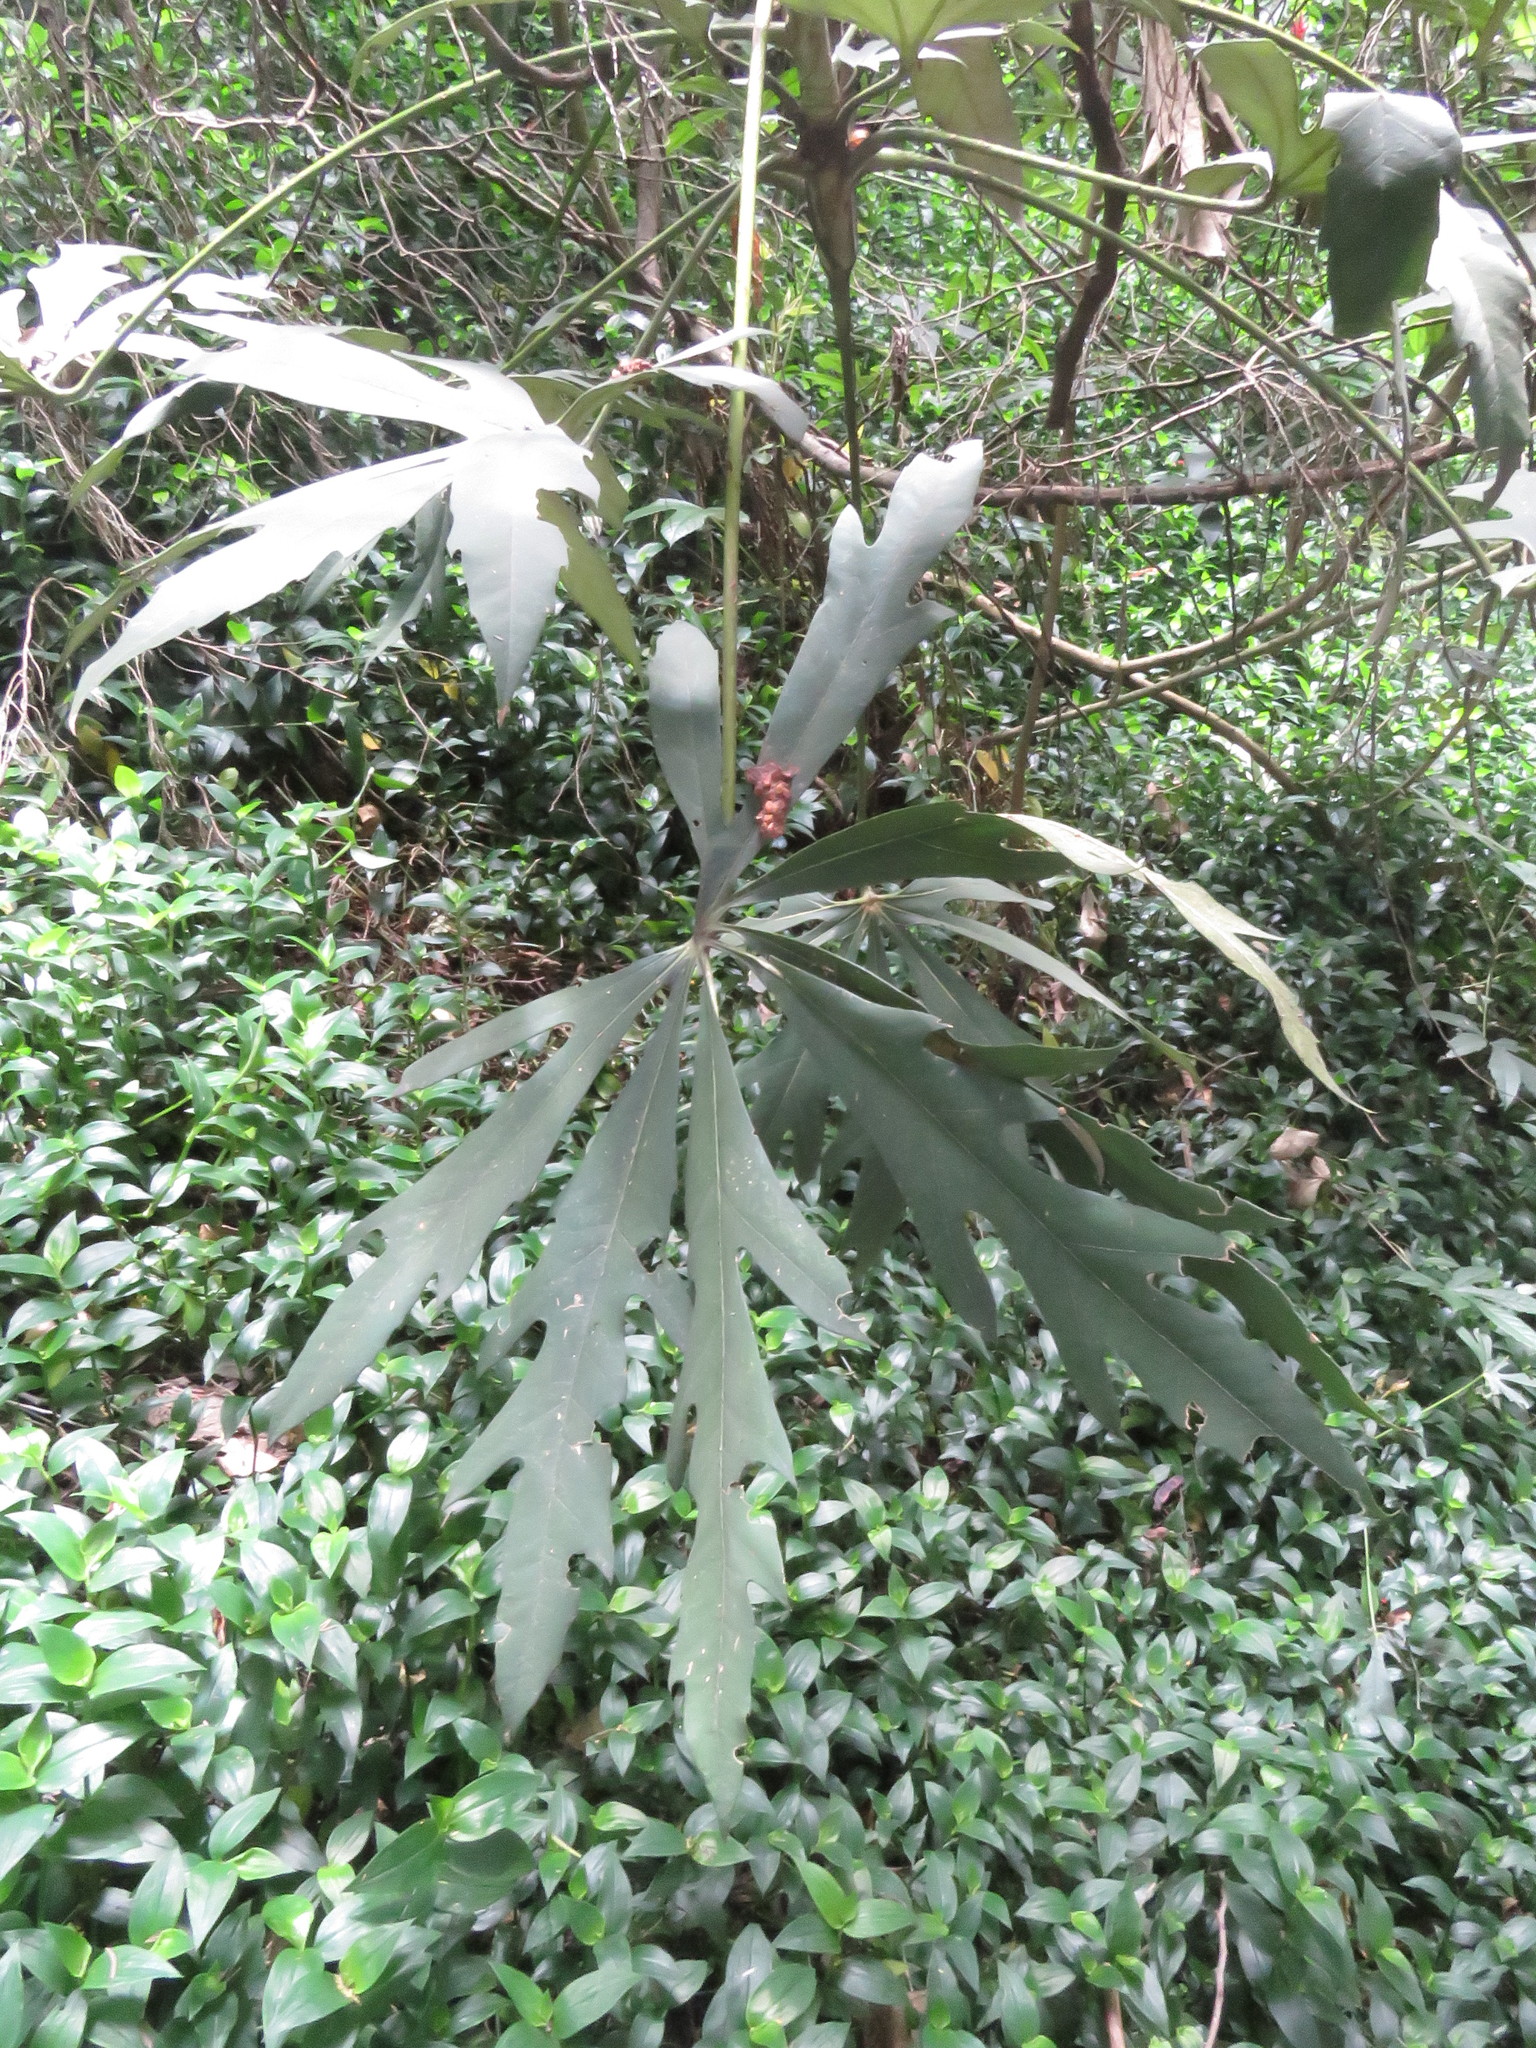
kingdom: Plantae
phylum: Tracheophyta
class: Magnoliopsida
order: Apiales
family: Araliaceae
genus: Oreopanax
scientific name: Oreopanax incisus
